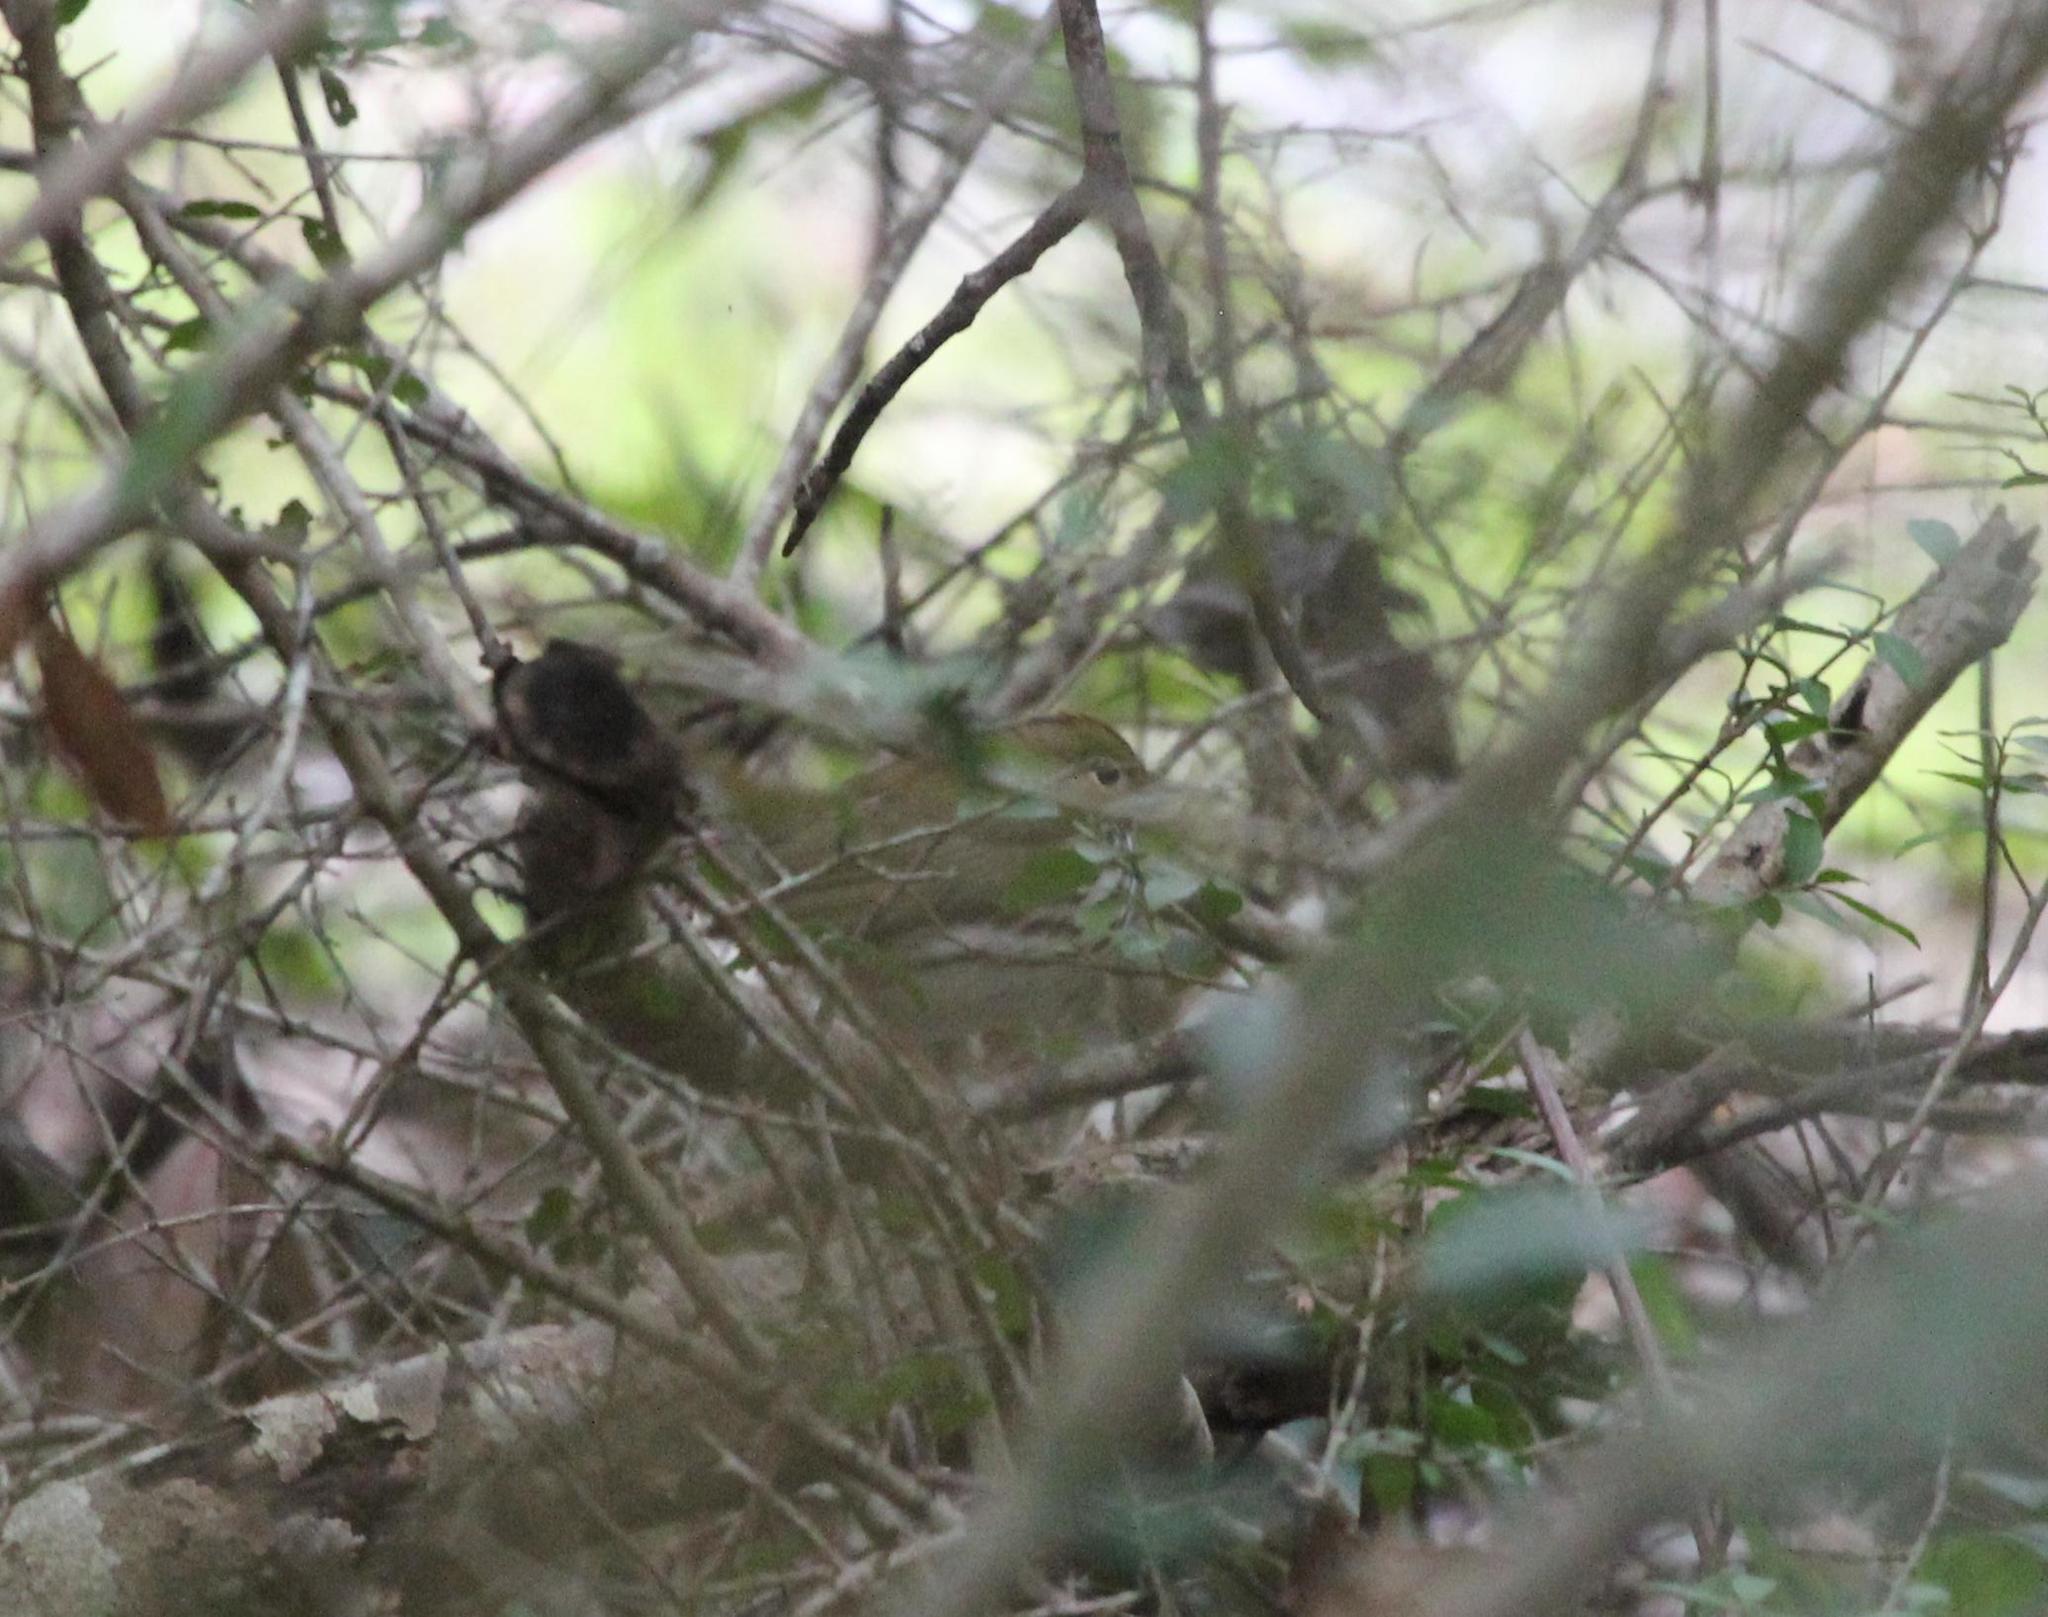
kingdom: Animalia
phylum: Chordata
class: Aves
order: Passeriformes
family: Parulidae
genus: Seiurus
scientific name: Seiurus aurocapilla
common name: Ovenbird
